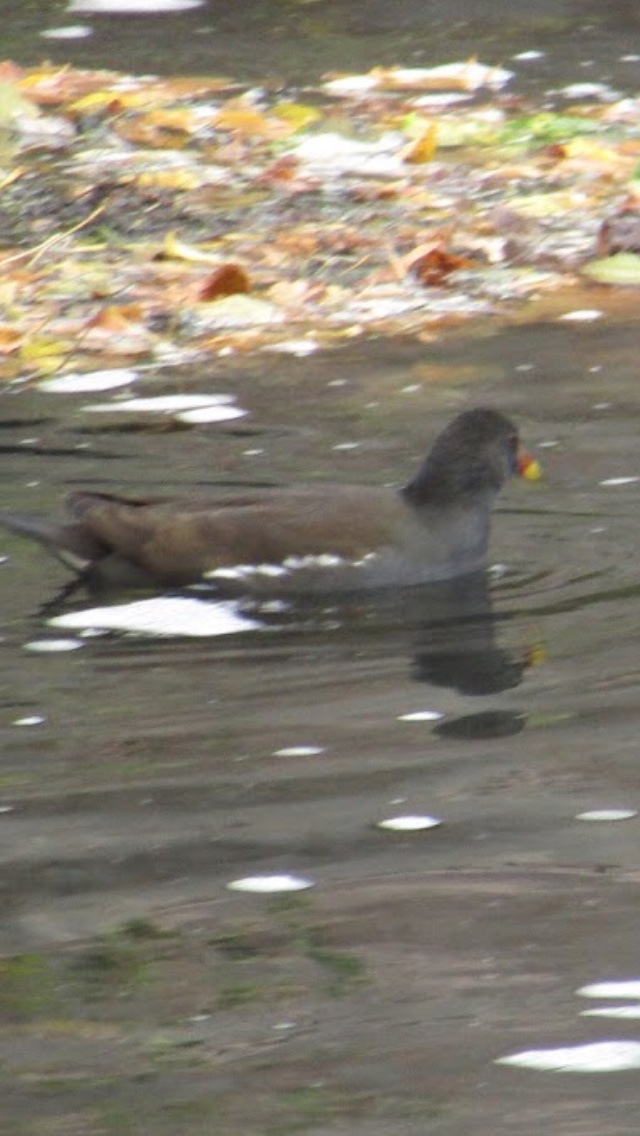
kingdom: Animalia
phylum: Chordata
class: Aves
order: Gruiformes
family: Rallidae
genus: Gallinula
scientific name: Gallinula chloropus
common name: Common moorhen
